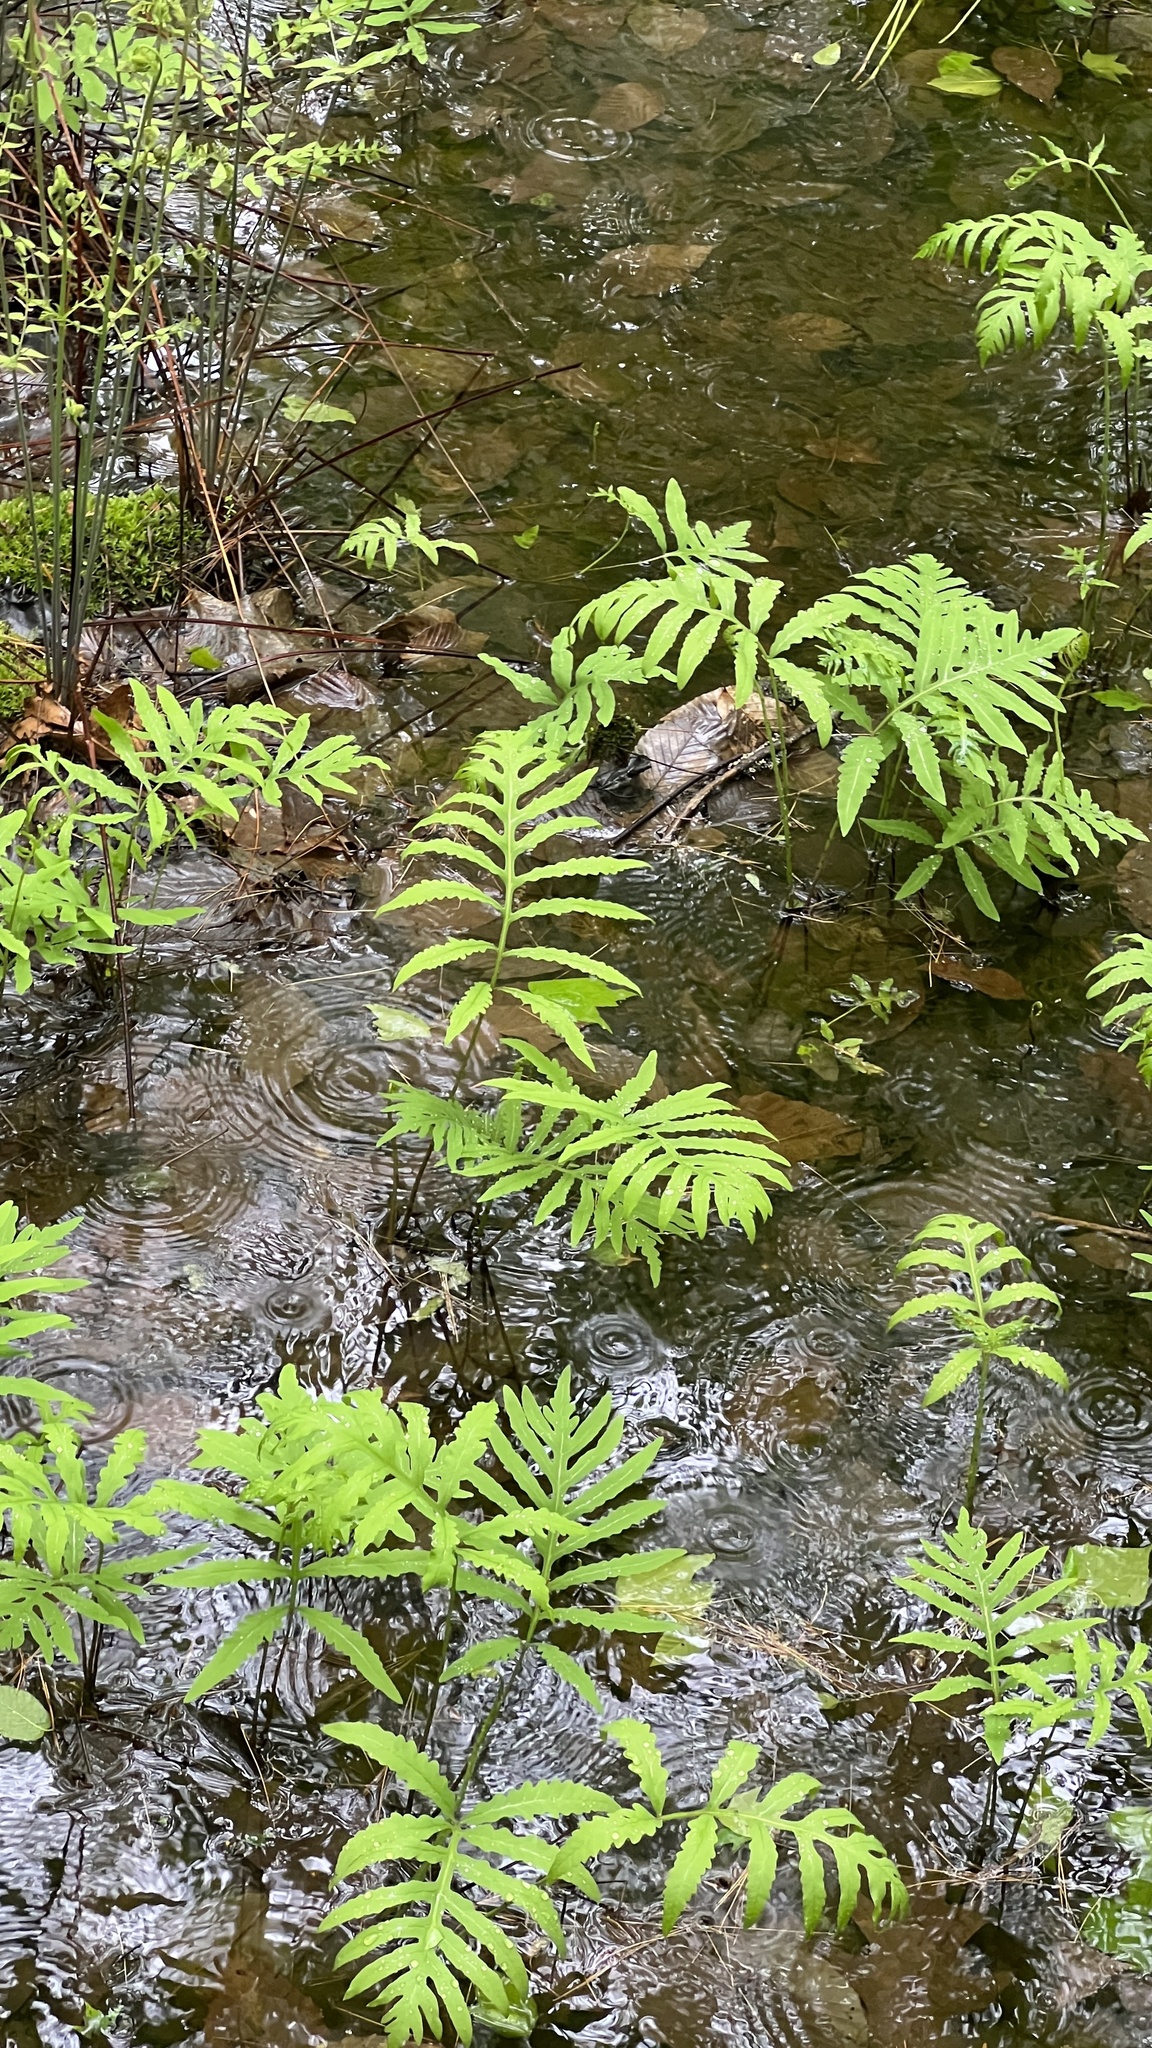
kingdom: Plantae
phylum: Tracheophyta
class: Polypodiopsida
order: Polypodiales
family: Onocleaceae
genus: Onoclea
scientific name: Onoclea sensibilis
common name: Sensitive fern
